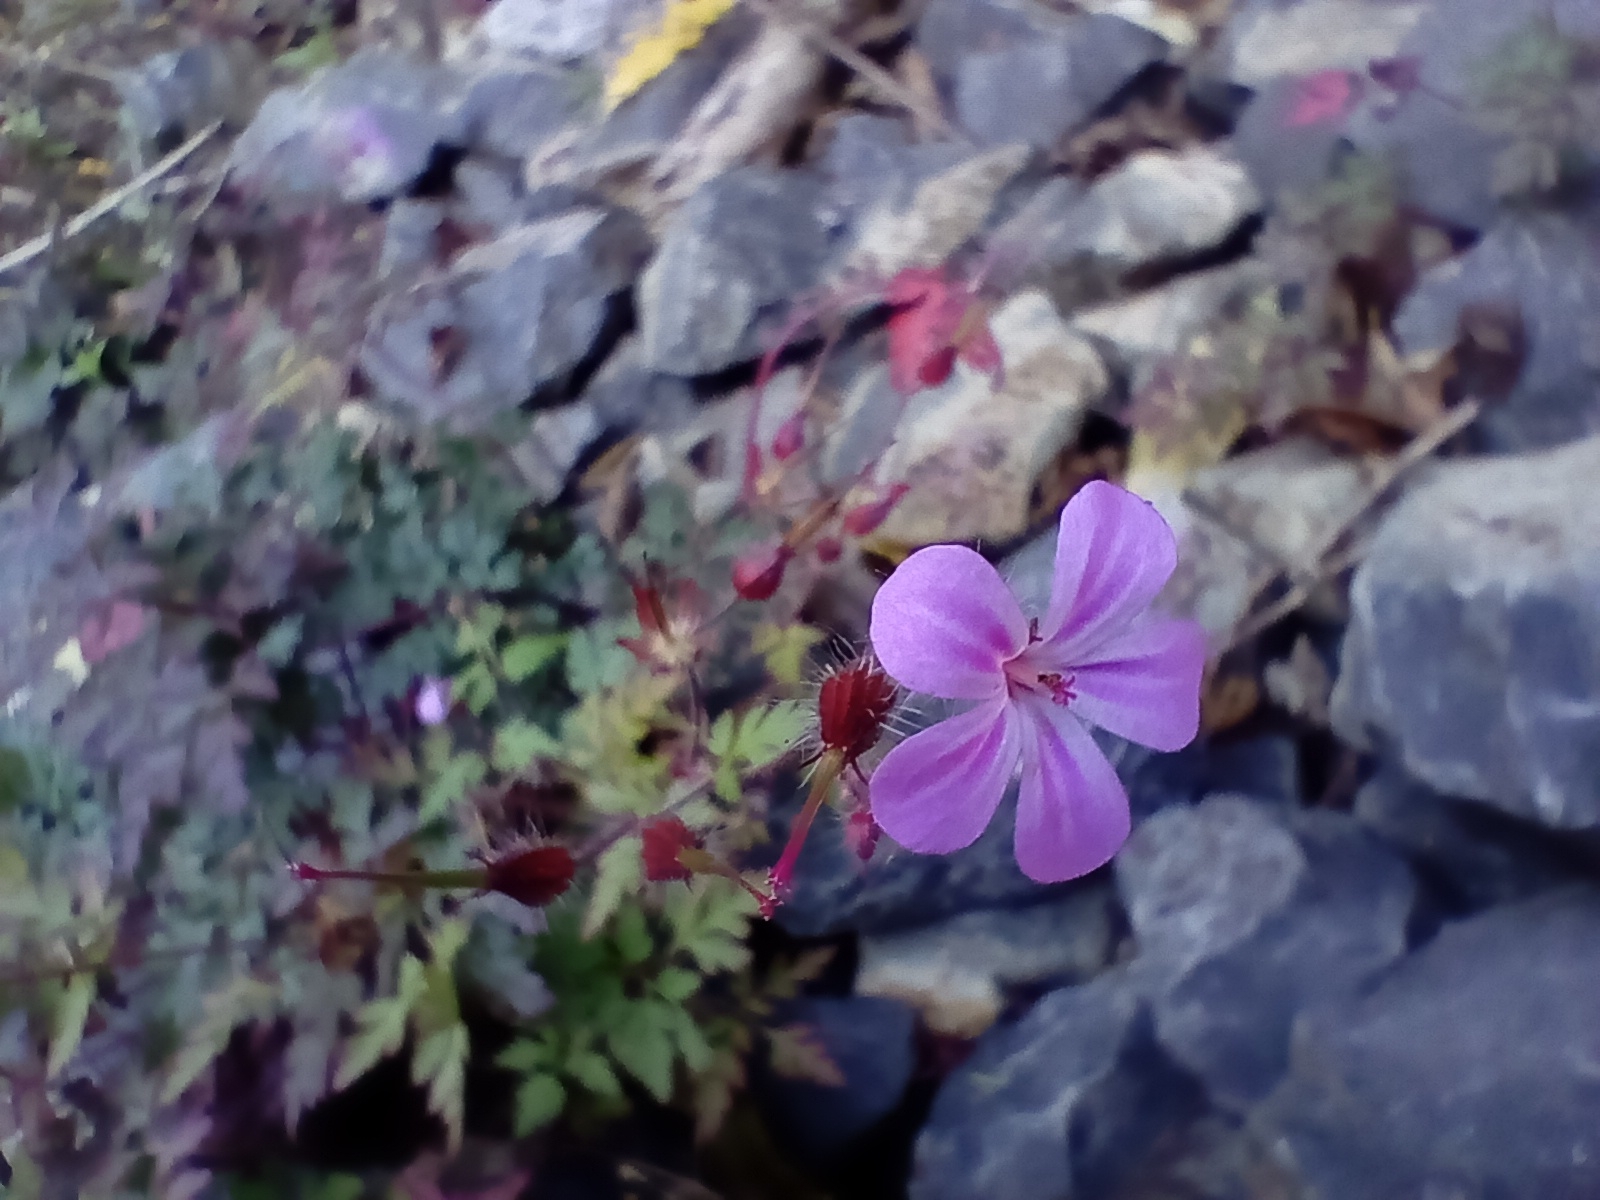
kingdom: Plantae
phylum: Tracheophyta
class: Magnoliopsida
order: Geraniales
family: Geraniaceae
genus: Geranium
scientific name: Geranium robertianum
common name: Herb-robert
